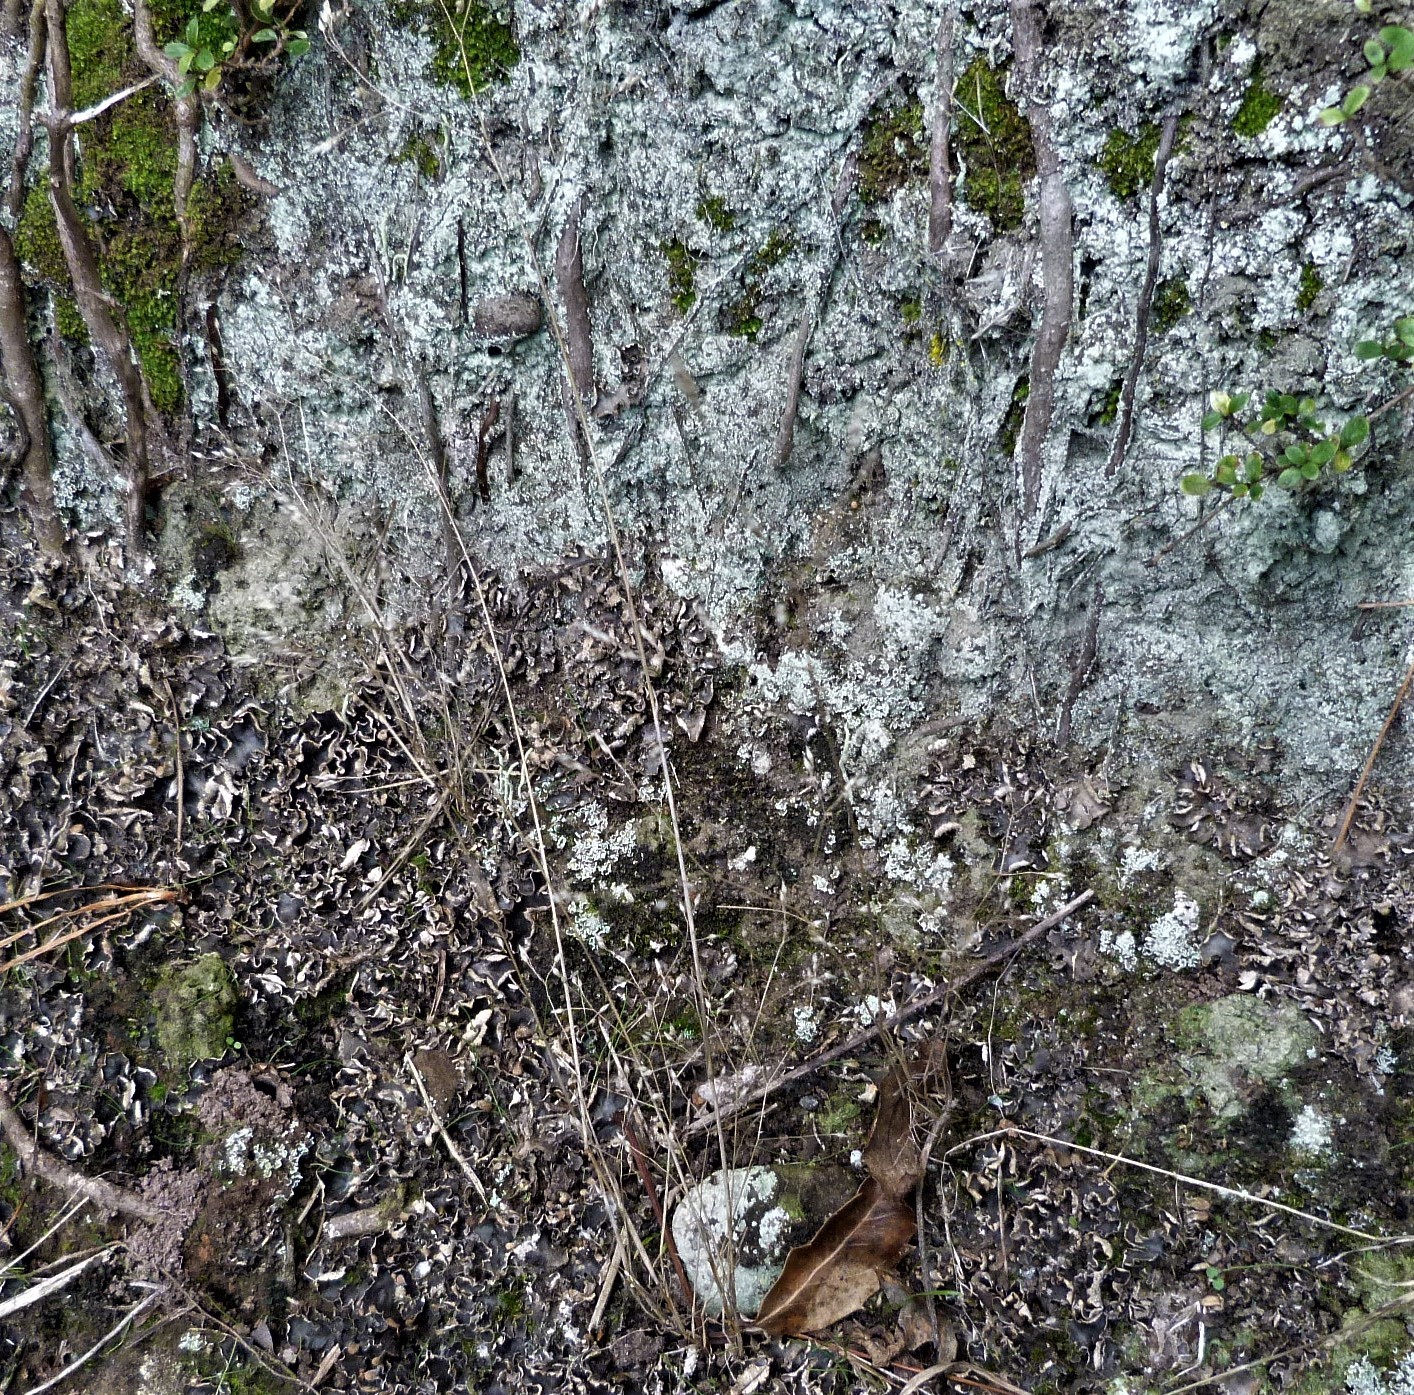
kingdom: Plantae
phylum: Tracheophyta
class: Liliopsida
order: Poales
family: Poaceae
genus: Aira
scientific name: Aira caryophyllea
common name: Silver hairgrass
